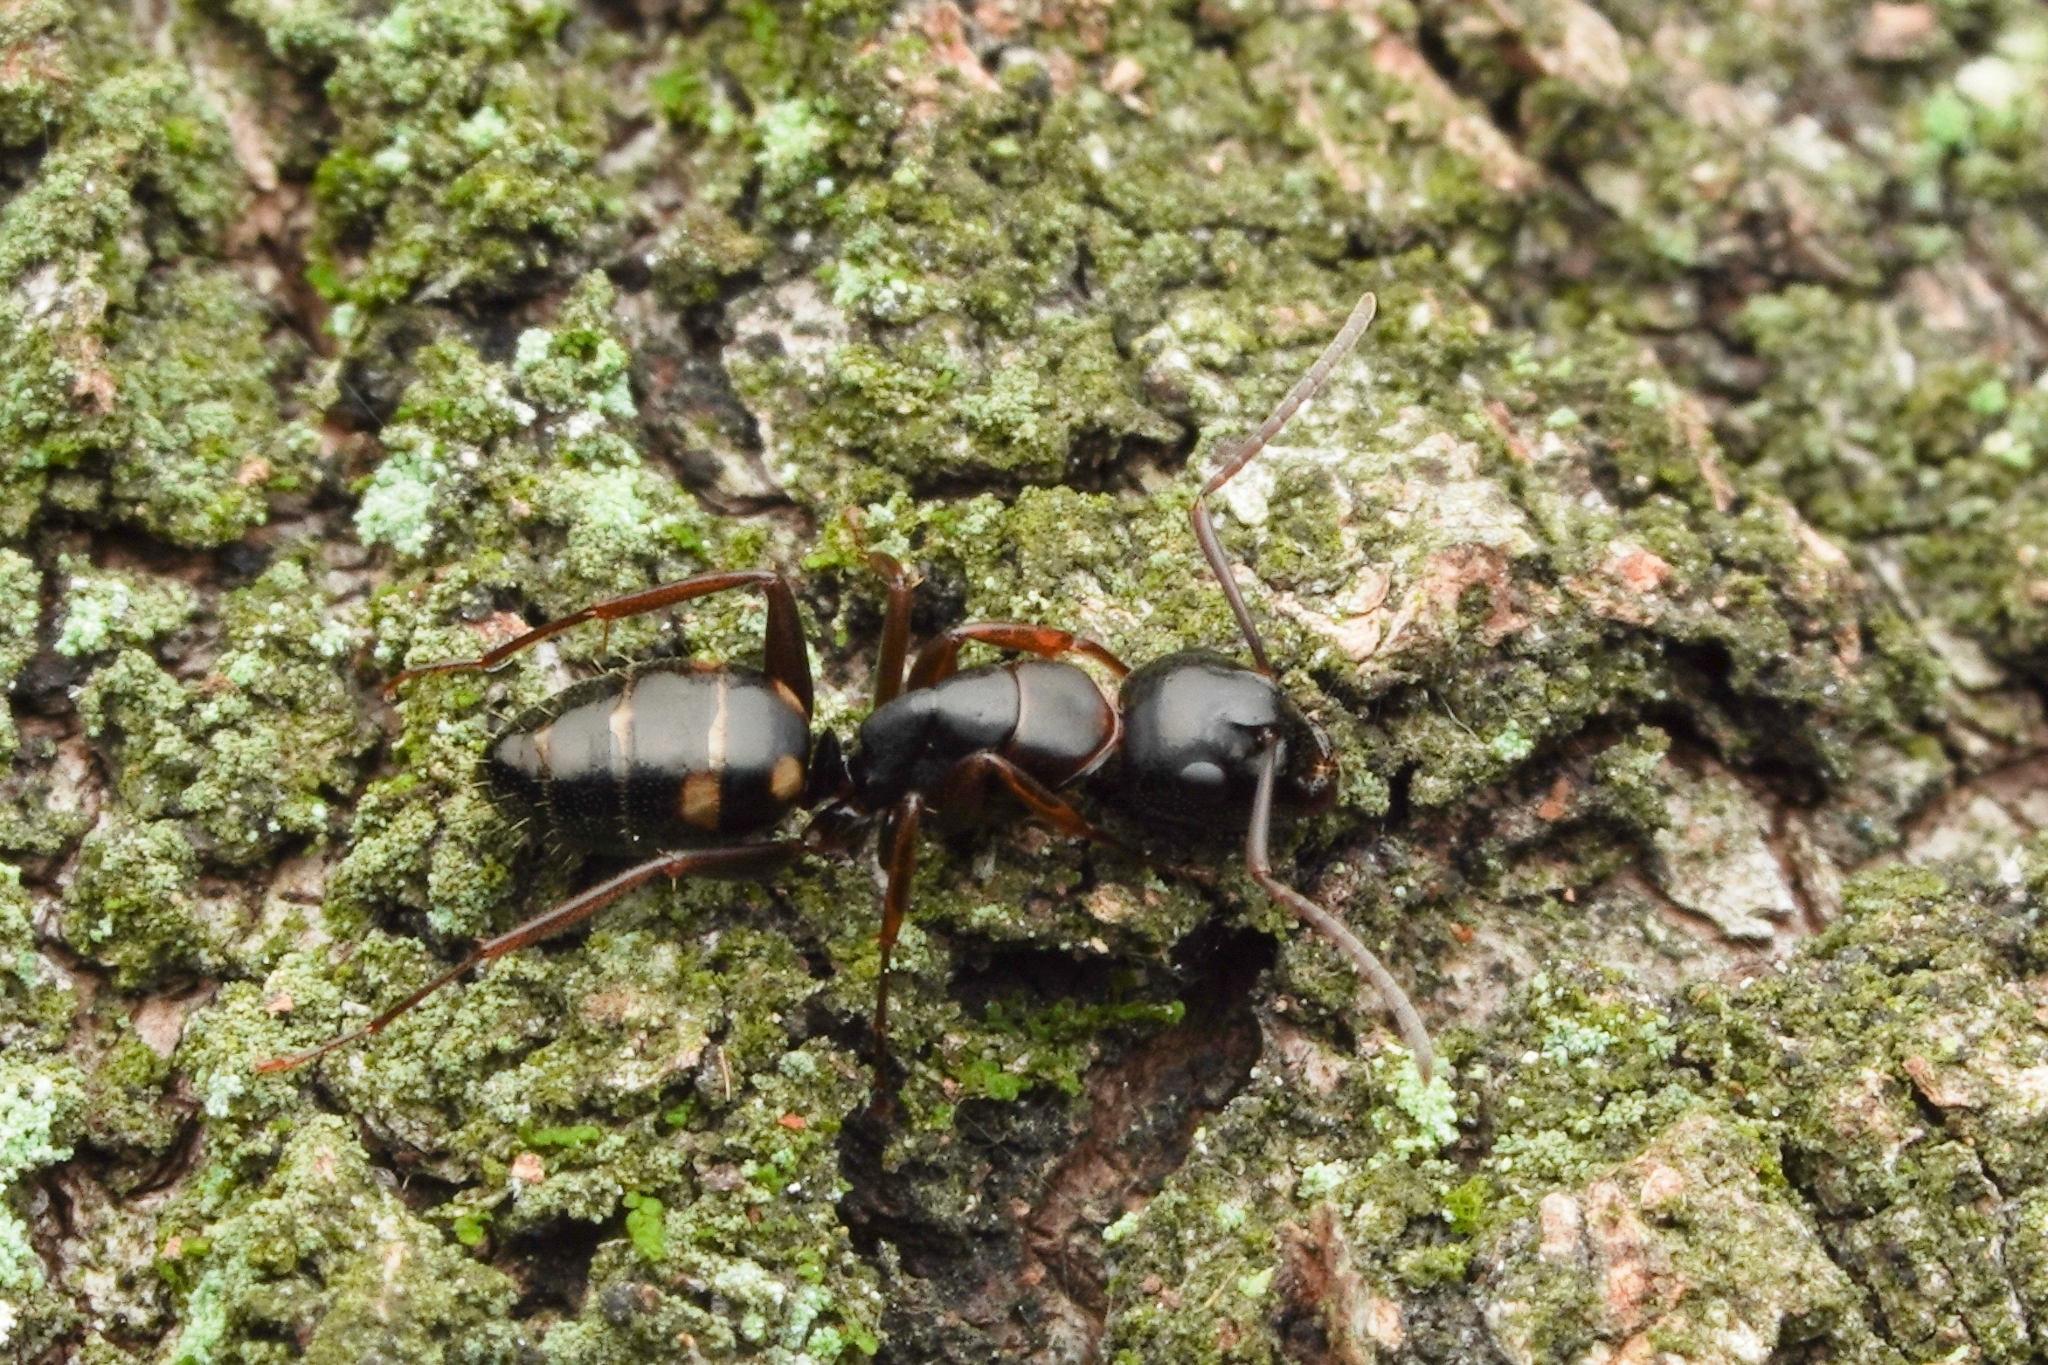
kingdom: Animalia
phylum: Arthropoda
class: Insecta
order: Hymenoptera
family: Formicidae
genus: Camponotus
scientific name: Camponotus quadrinotatus
